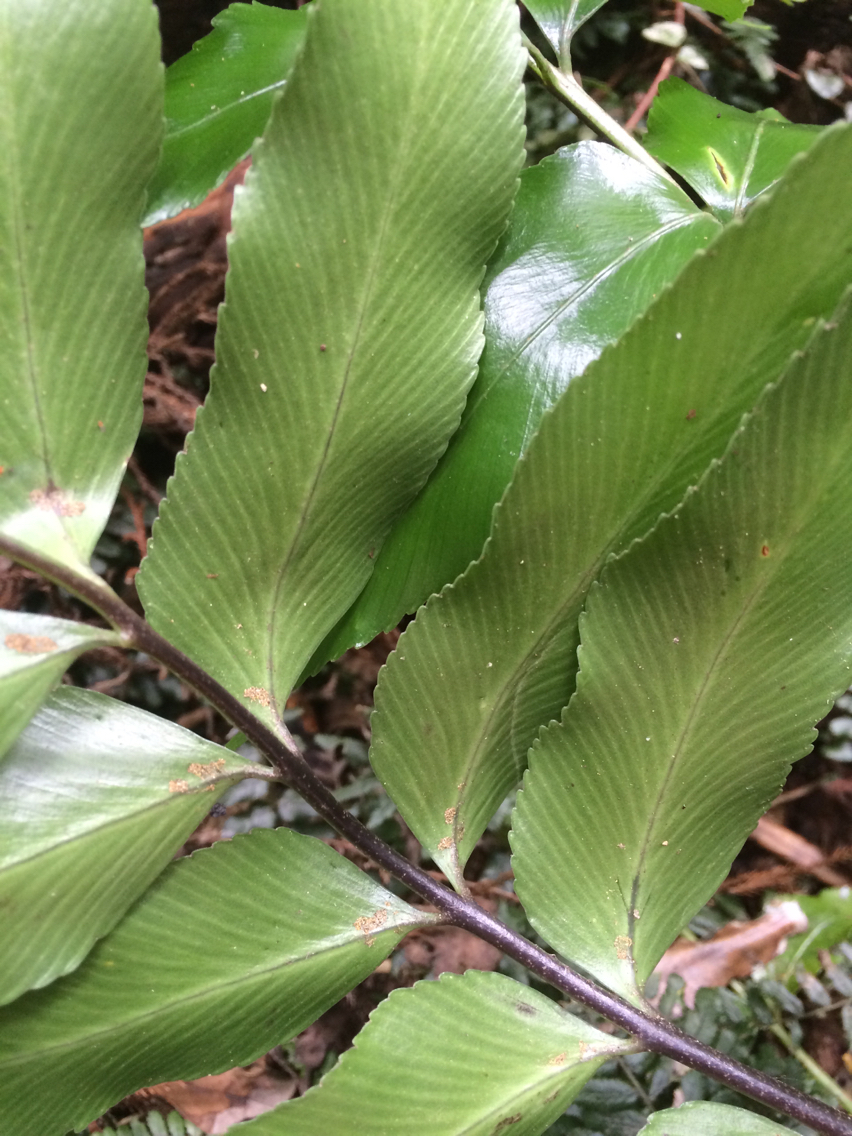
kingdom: Plantae
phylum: Tracheophyta
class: Polypodiopsida
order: Polypodiales
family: Aspleniaceae
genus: Asplenium
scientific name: Asplenium oblongifolium
